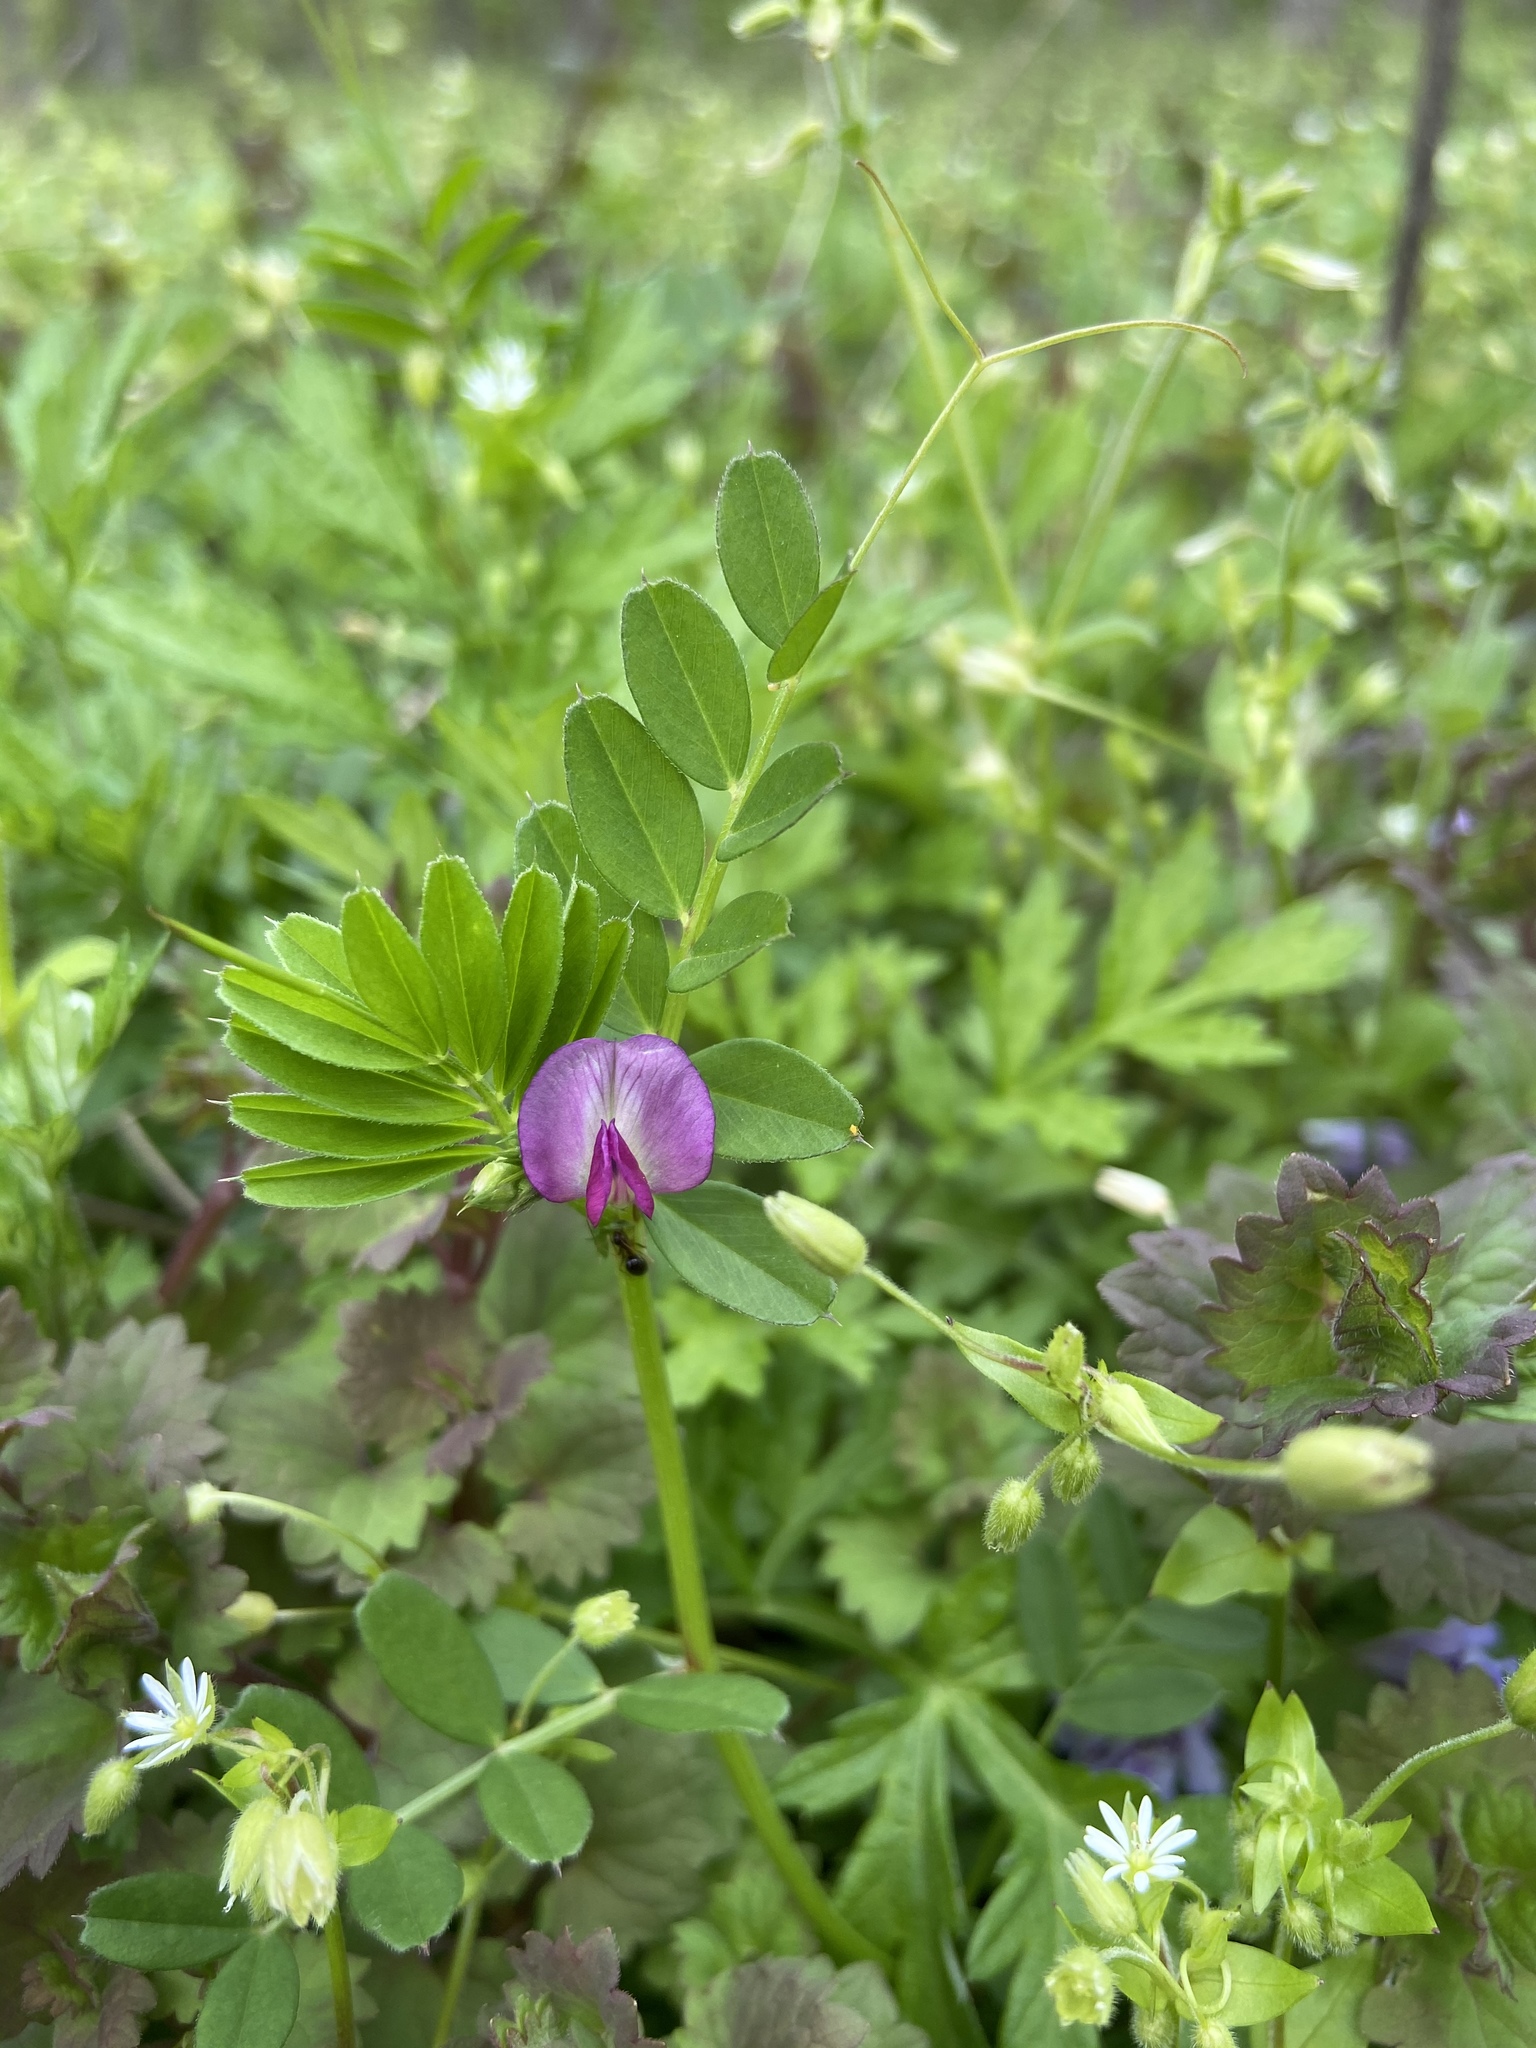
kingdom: Plantae
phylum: Tracheophyta
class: Magnoliopsida
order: Fabales
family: Fabaceae
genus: Vicia
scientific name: Vicia sativa
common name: Garden vetch
